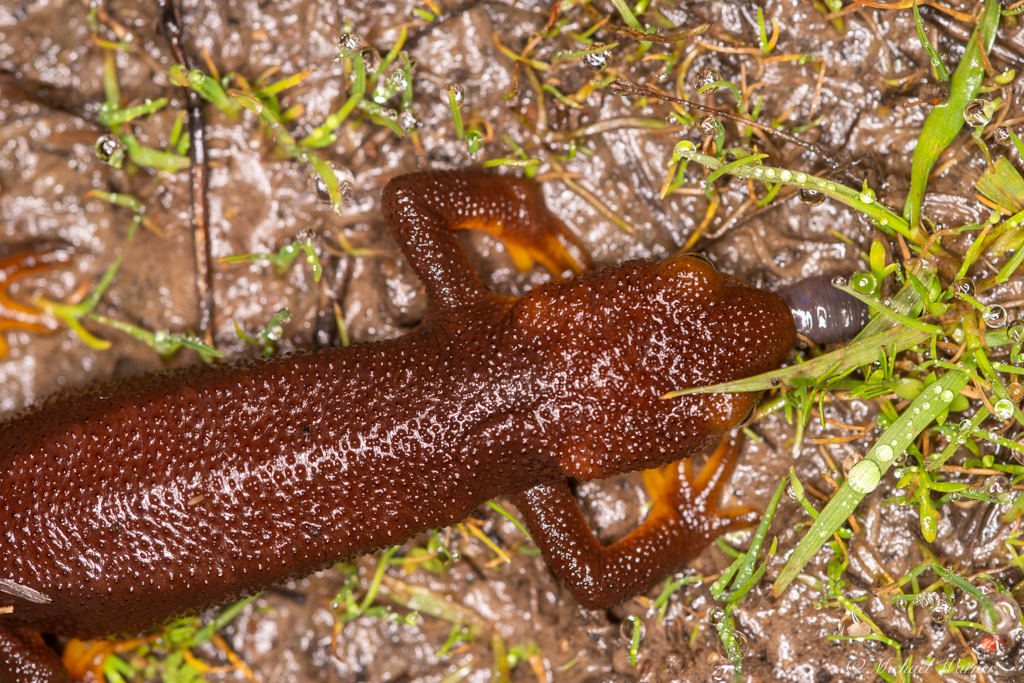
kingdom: Animalia
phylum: Chordata
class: Amphibia
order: Caudata
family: Salamandridae
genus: Taricha
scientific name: Taricha torosa
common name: California newt
